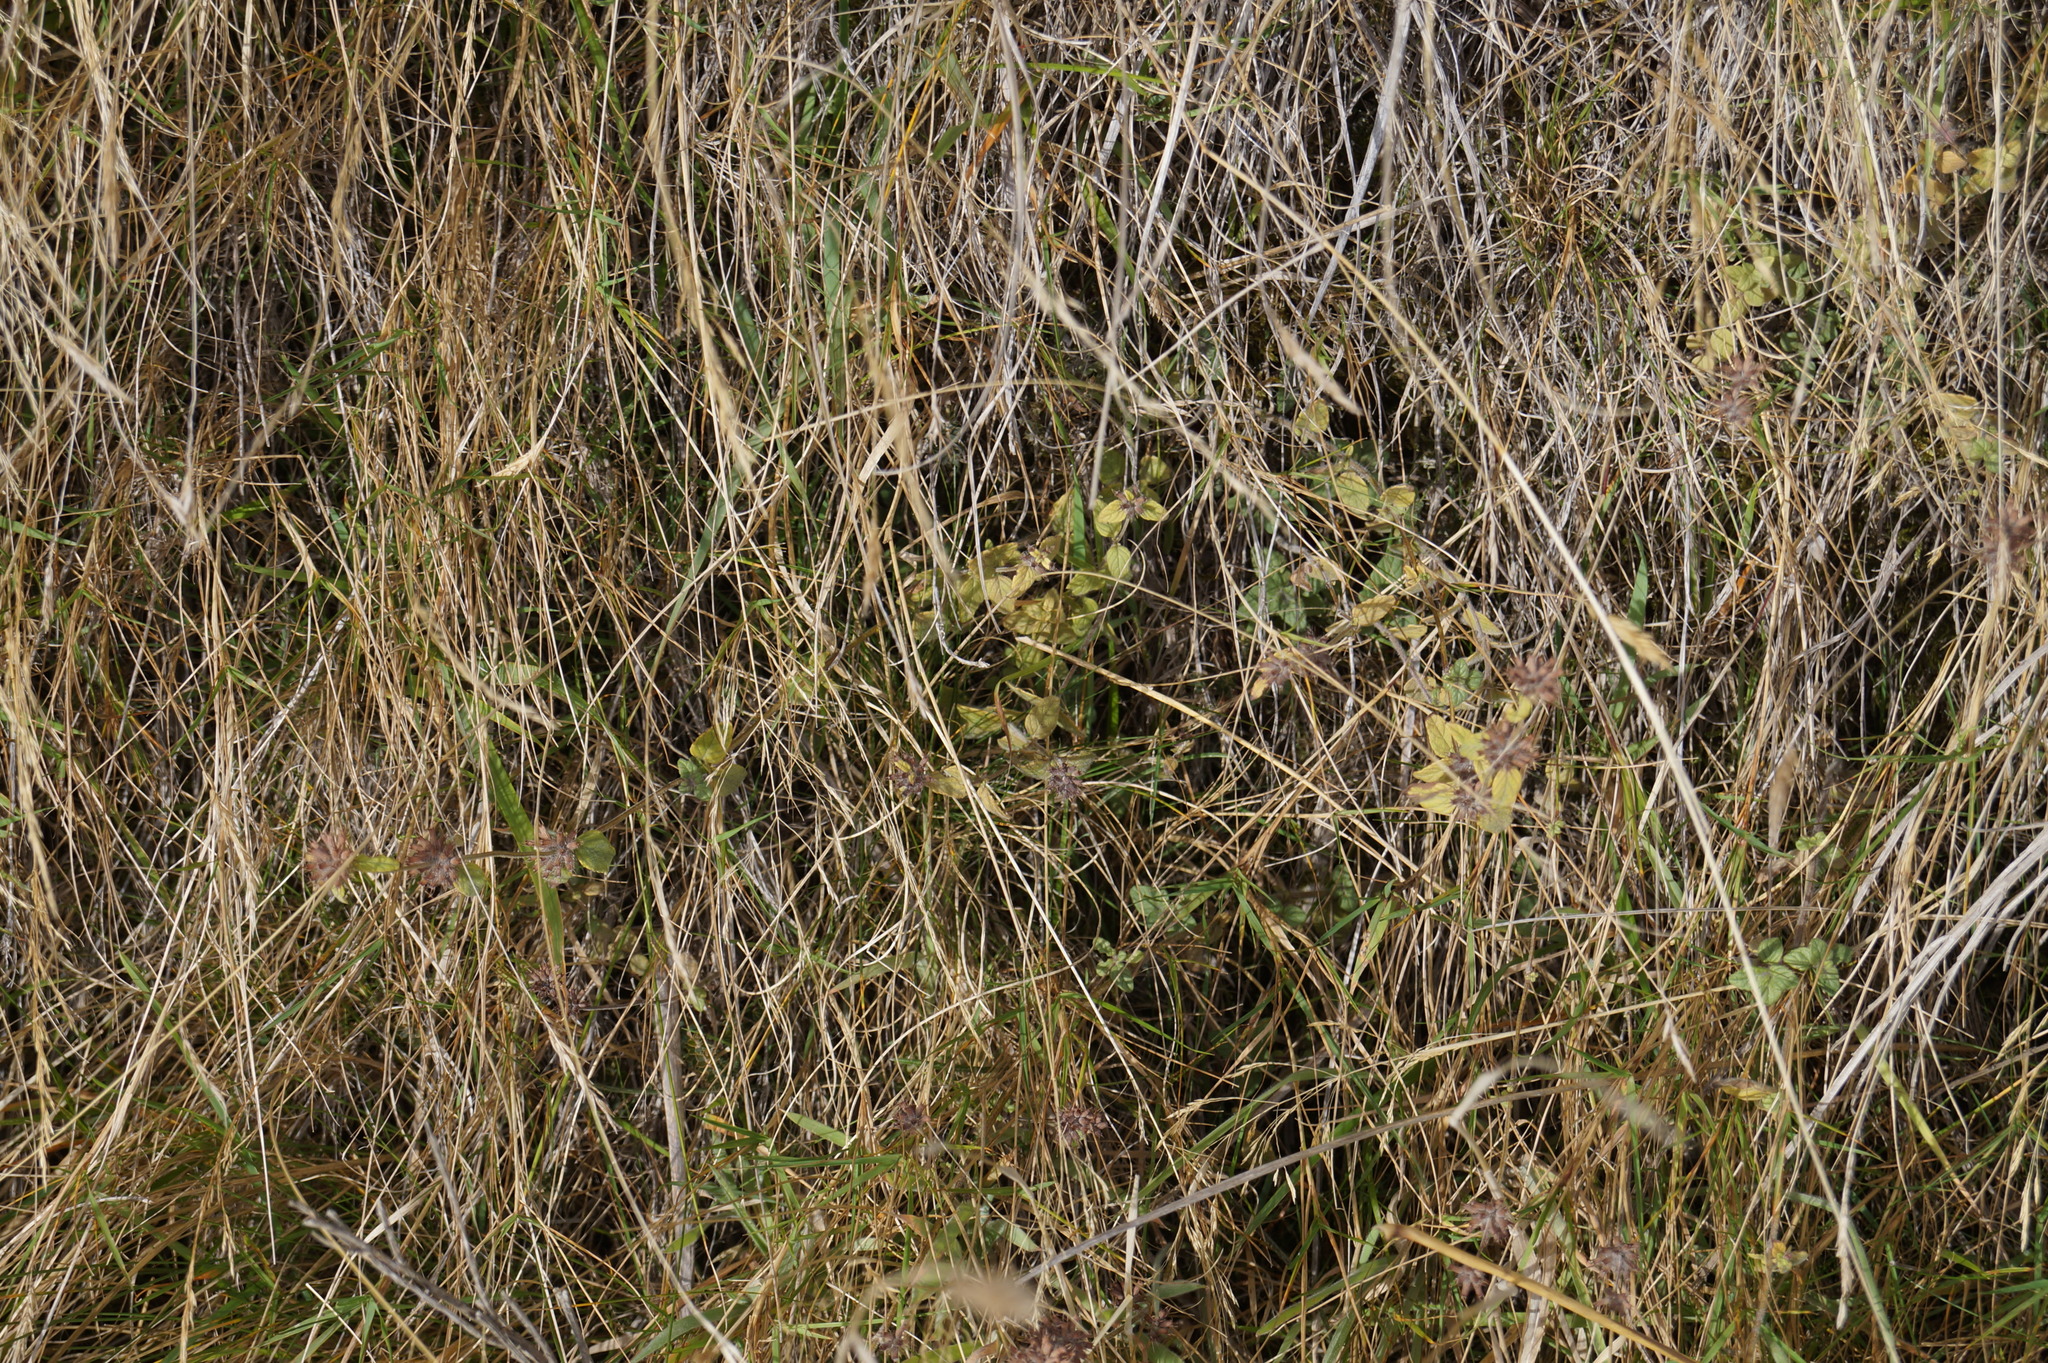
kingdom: Plantae
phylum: Tracheophyta
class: Magnoliopsida
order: Lamiales
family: Lamiaceae
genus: Mentha
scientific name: Mentha pulegium
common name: Pennyroyal
